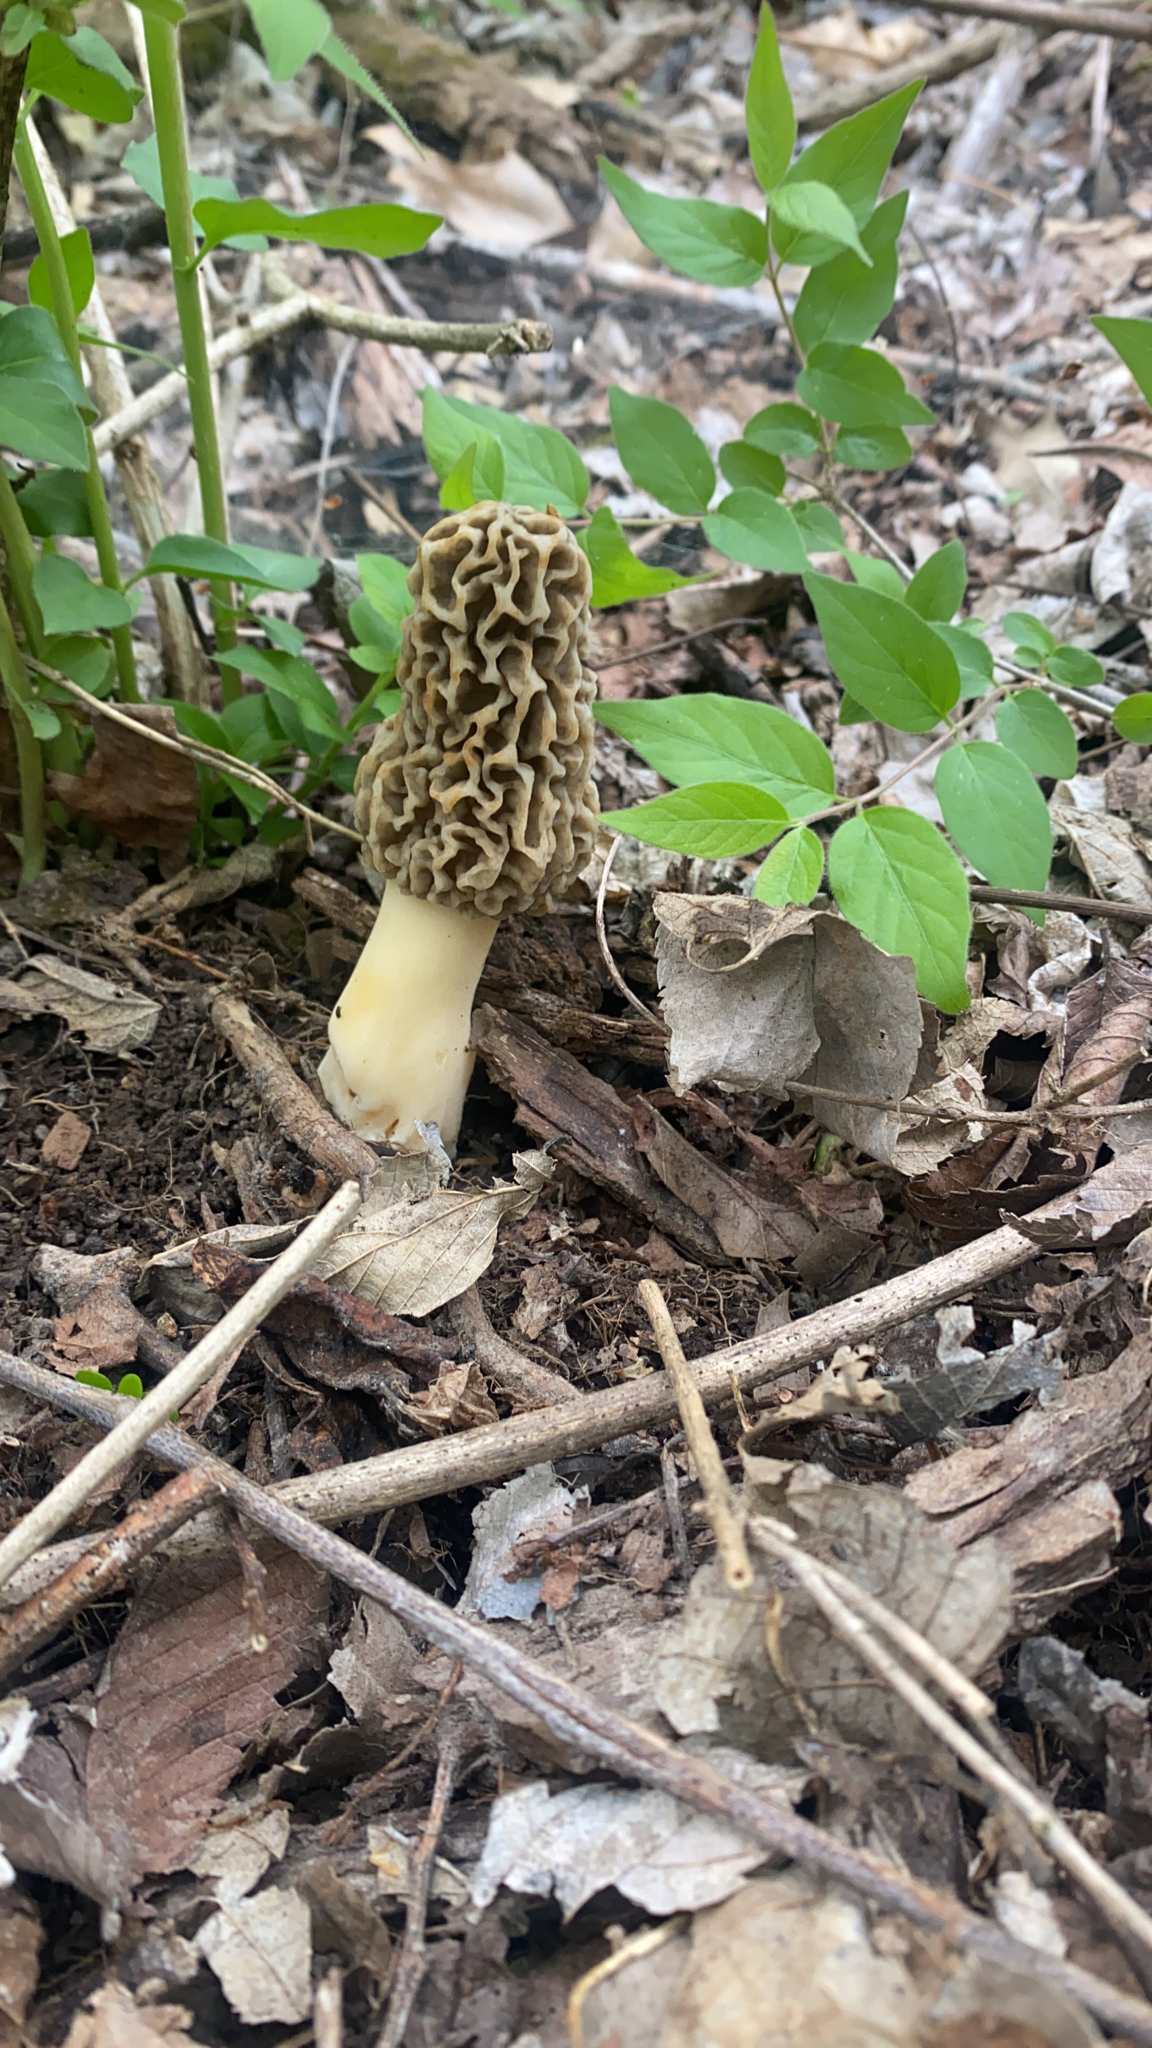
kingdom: Fungi
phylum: Ascomycota
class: Pezizomycetes
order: Pezizales
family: Morchellaceae
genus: Morchella
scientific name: Morchella americana
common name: White morel
